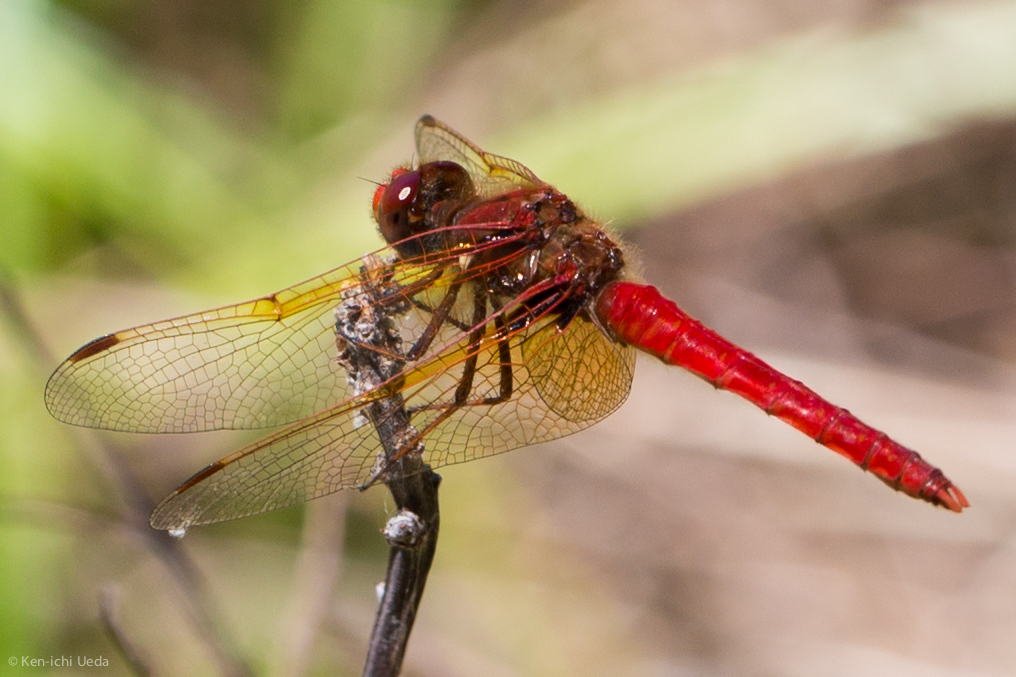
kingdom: Animalia
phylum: Arthropoda
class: Insecta
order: Odonata
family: Libellulidae
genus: Sympetrum
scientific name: Sympetrum illotum
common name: Cardinal meadowhawk
